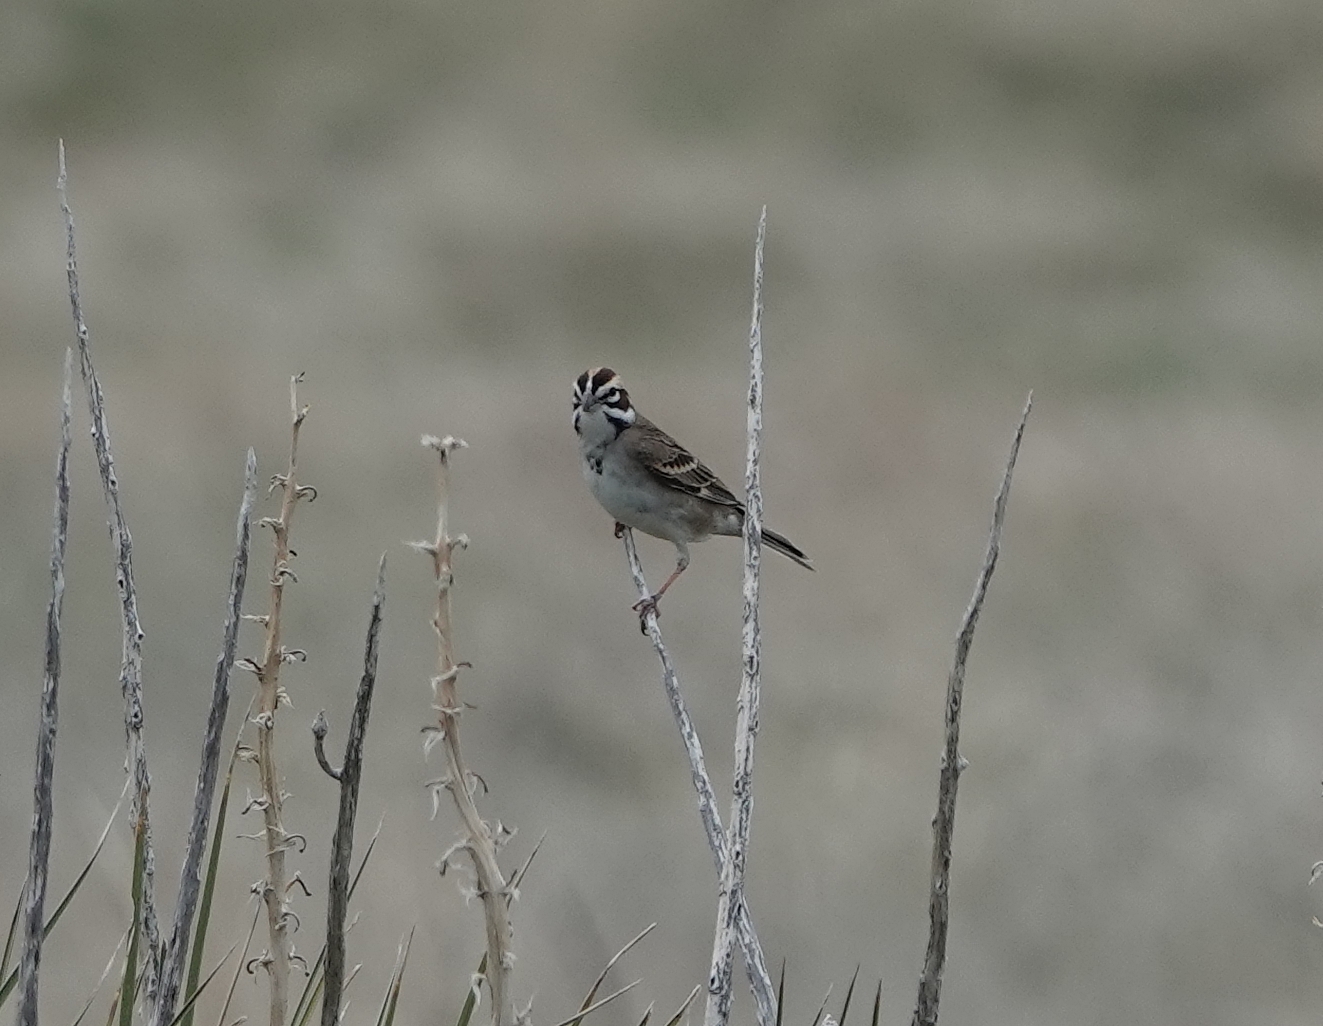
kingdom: Animalia
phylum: Chordata
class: Aves
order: Passeriformes
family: Passerellidae
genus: Chondestes
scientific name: Chondestes grammacus
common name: Lark sparrow
